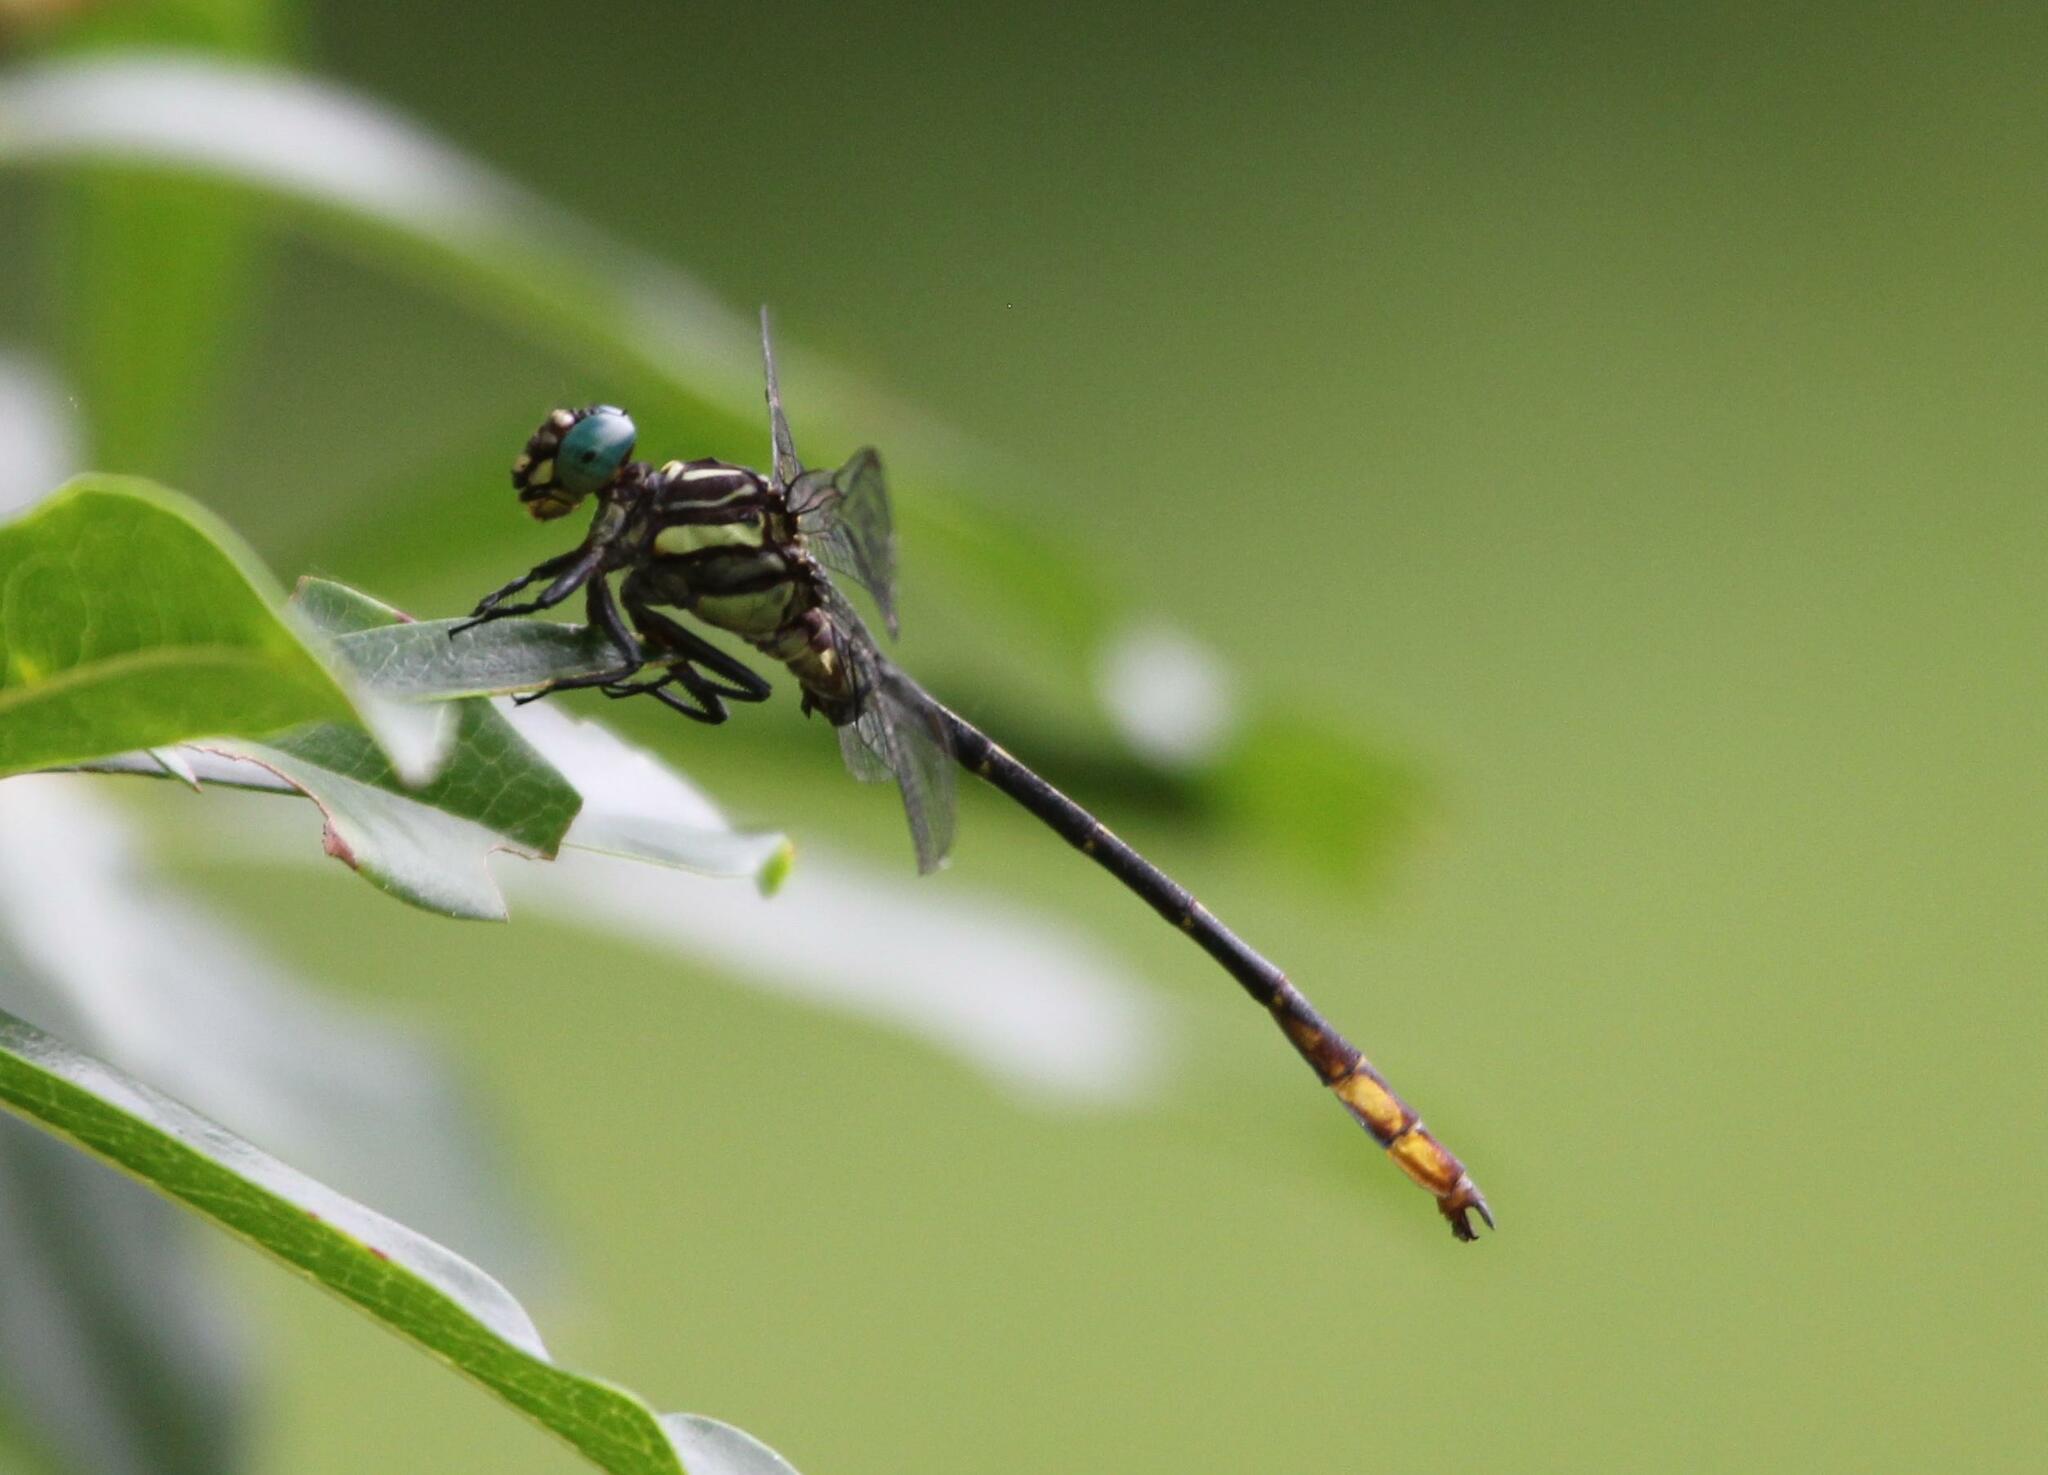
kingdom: Animalia
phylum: Arthropoda
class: Insecta
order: Odonata
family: Gomphidae
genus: Stylurus
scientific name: Stylurus laurae
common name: Laura's clubtail
